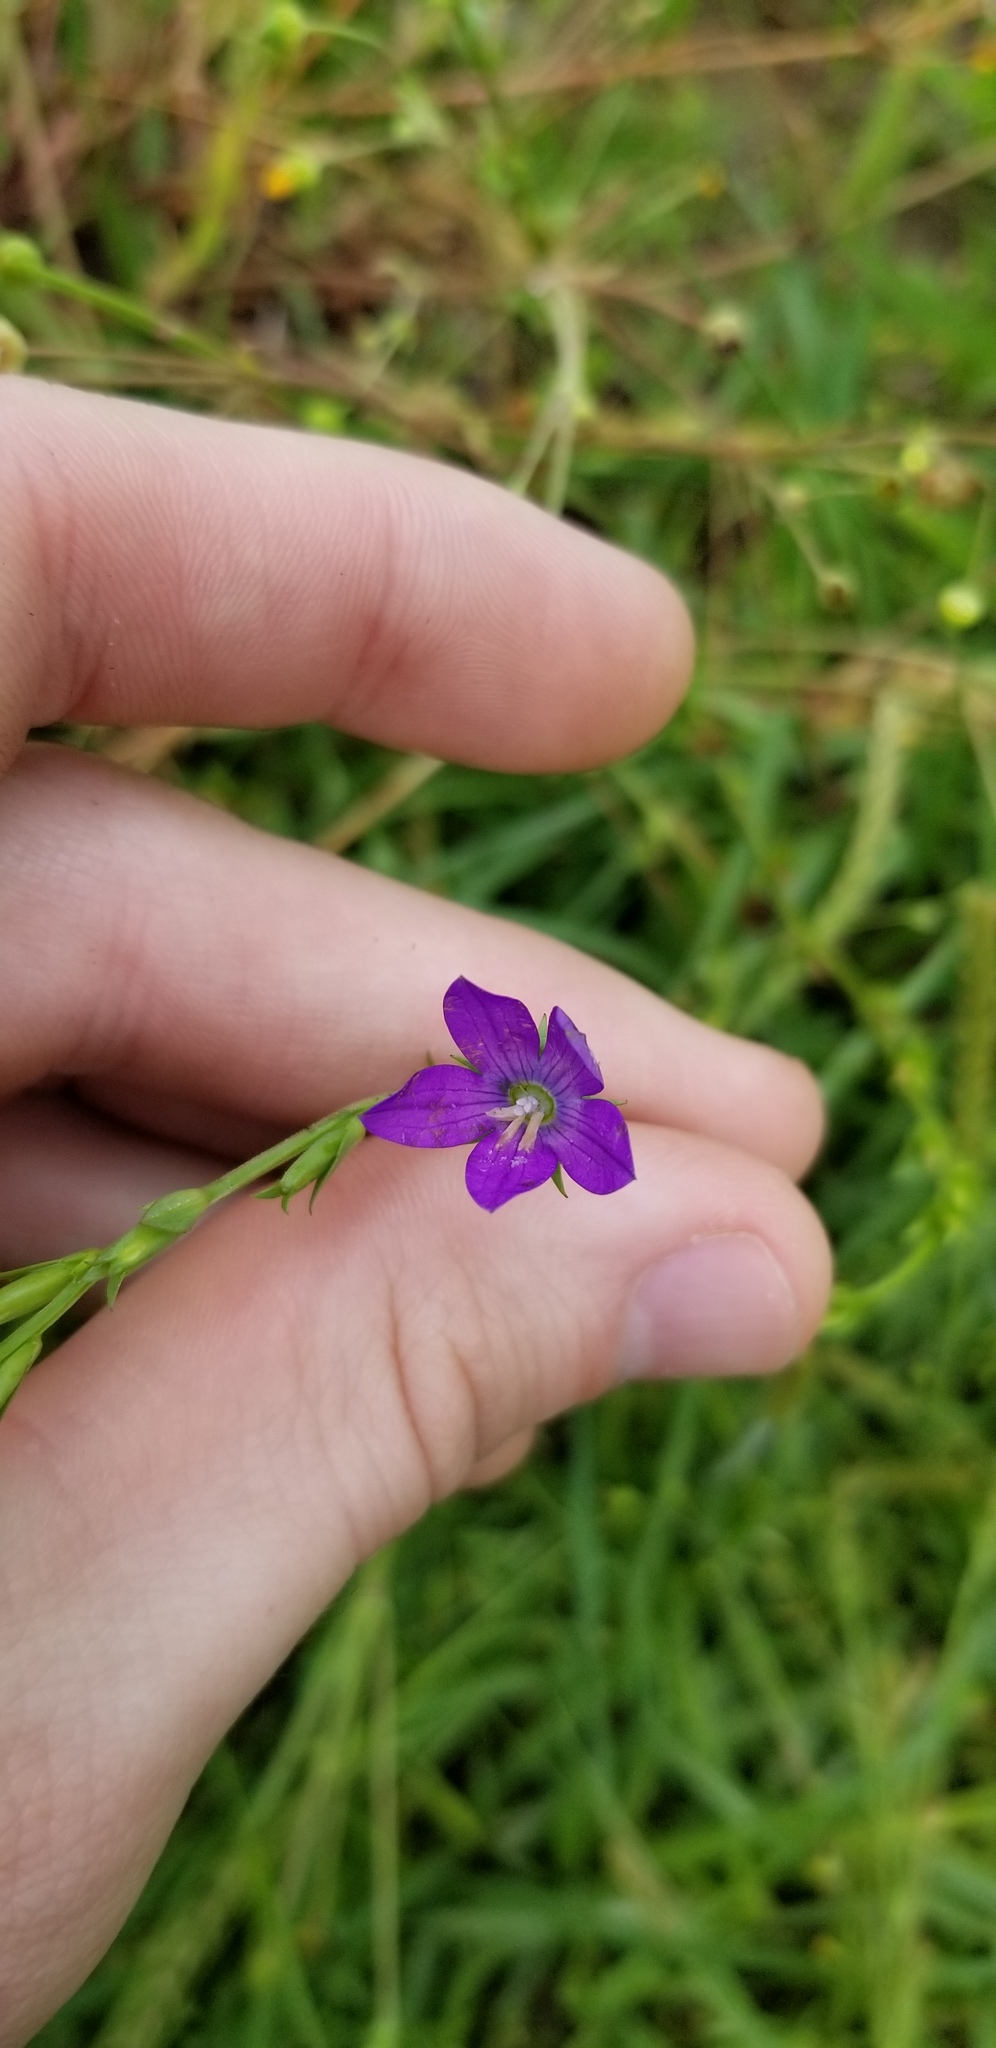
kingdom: Plantae
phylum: Tracheophyta
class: Magnoliopsida
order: Asterales
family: Campanulaceae
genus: Triodanis
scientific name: Triodanis biflora
